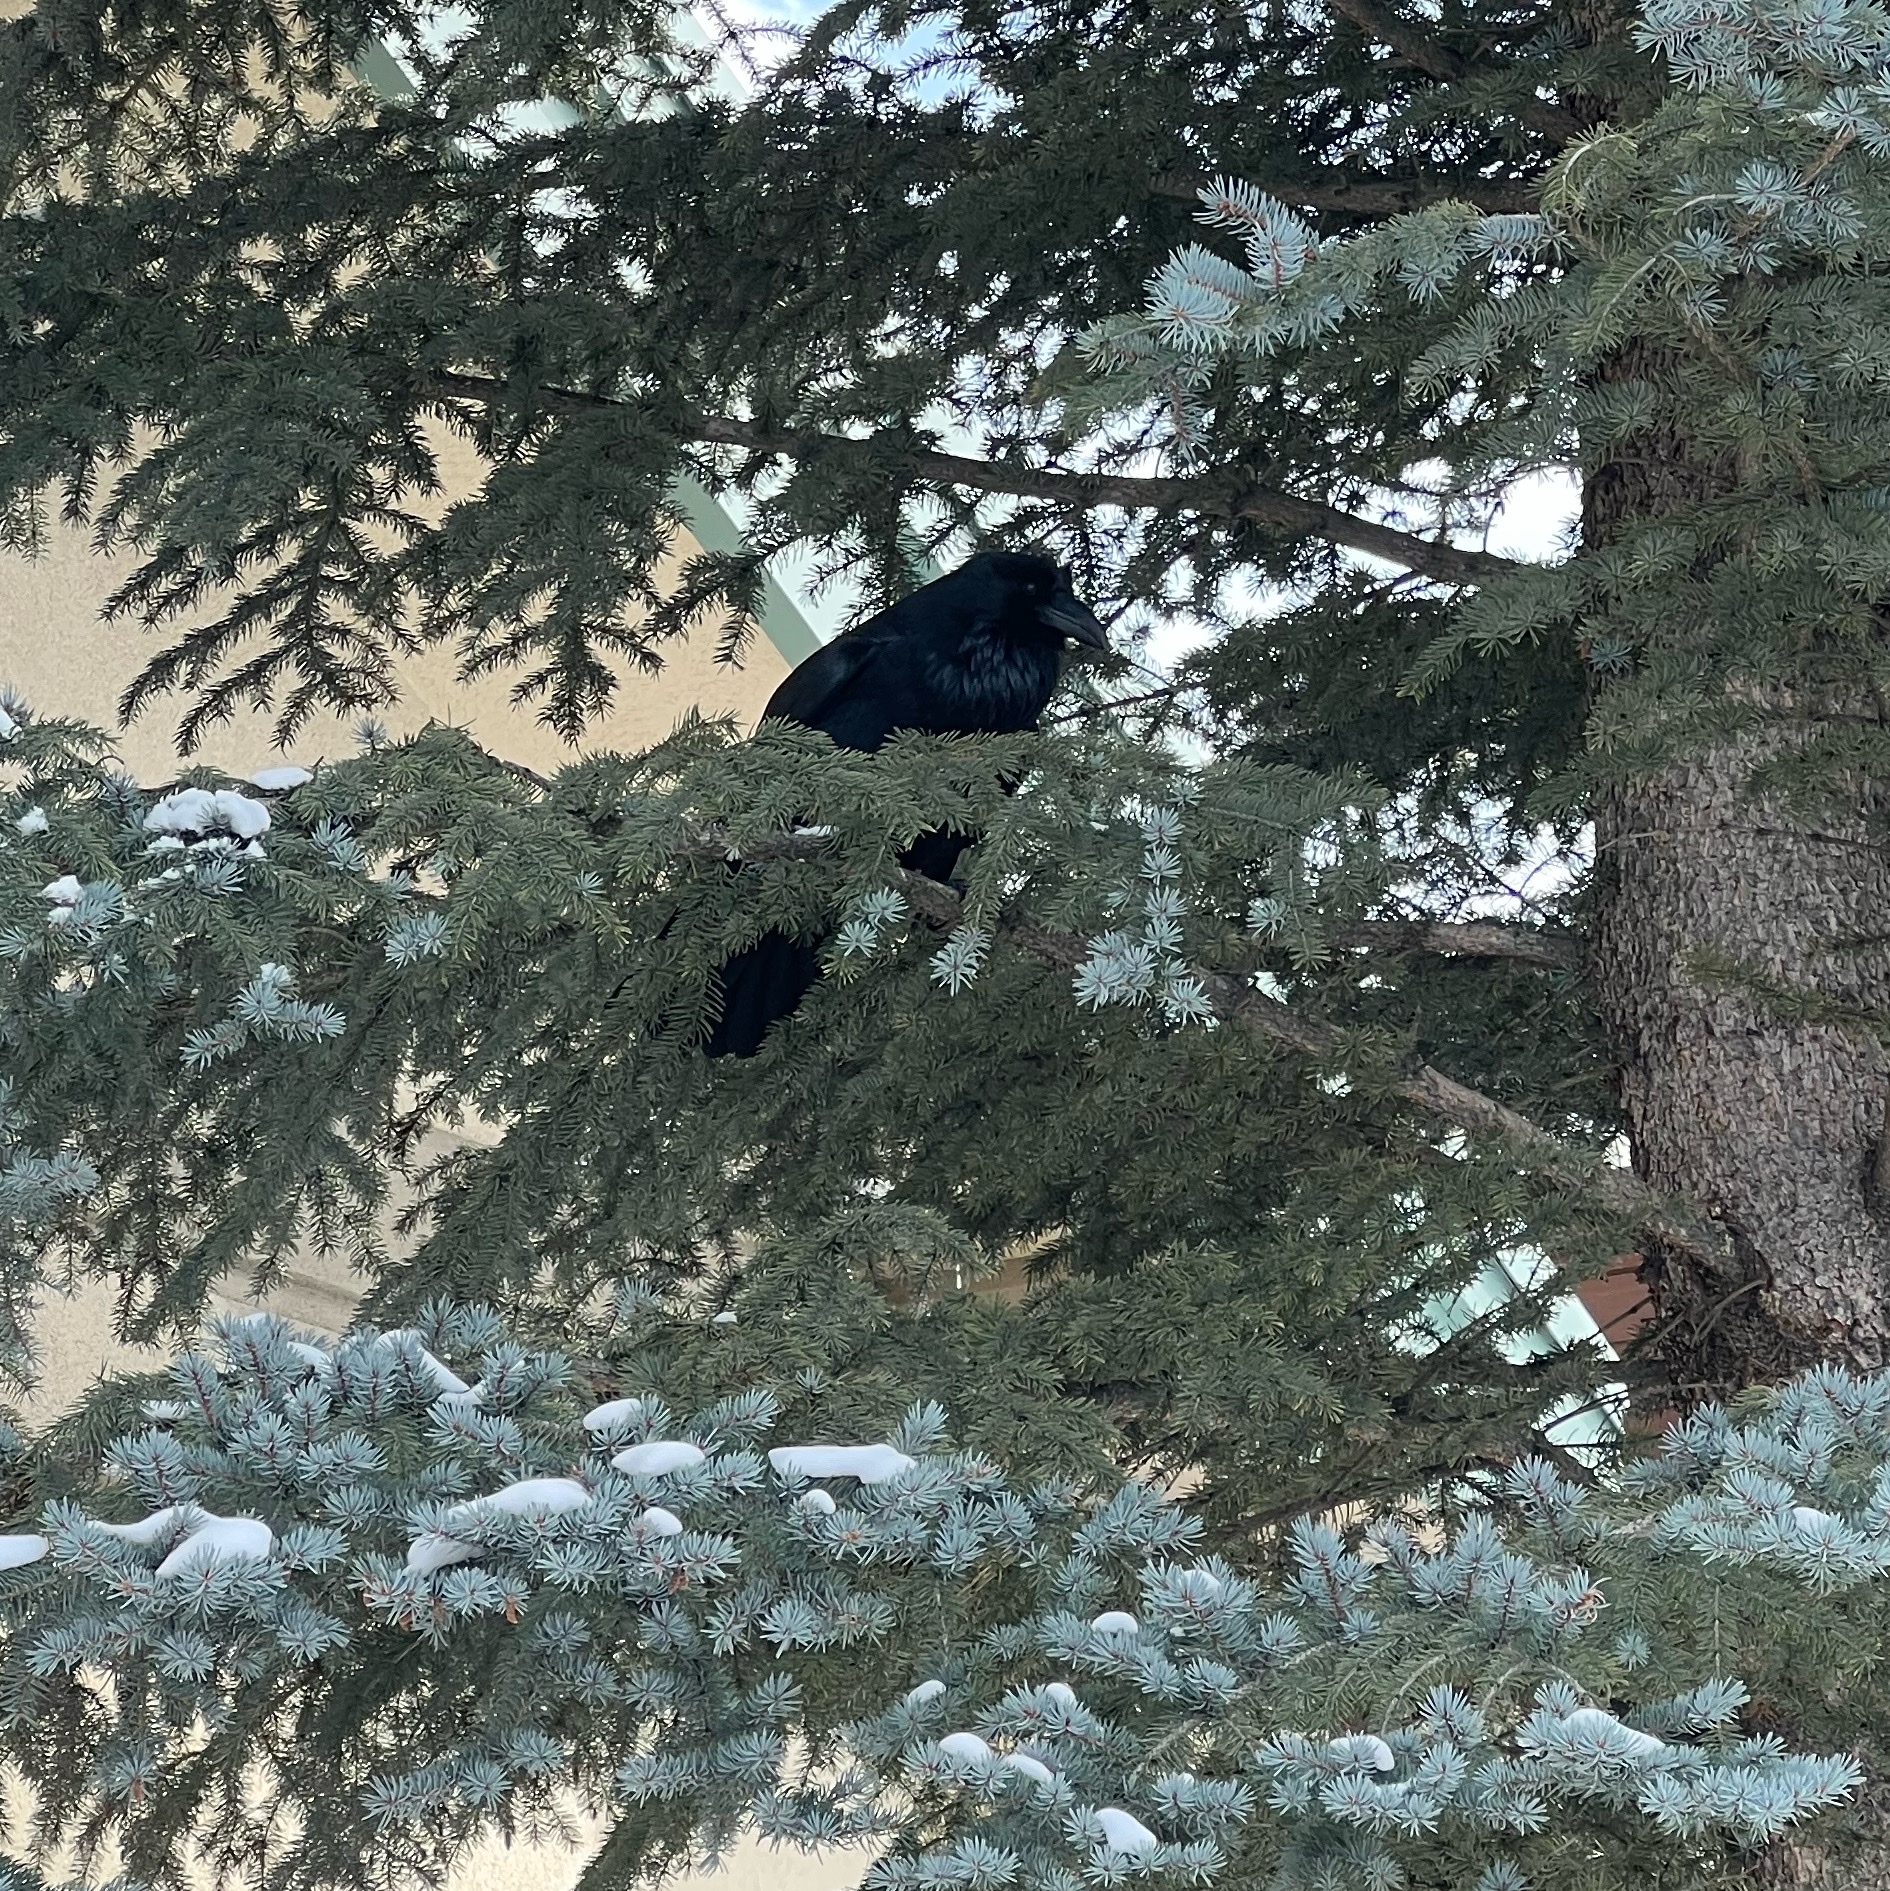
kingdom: Animalia
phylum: Chordata
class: Aves
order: Passeriformes
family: Corvidae
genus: Corvus
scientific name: Corvus corax
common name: Common raven
